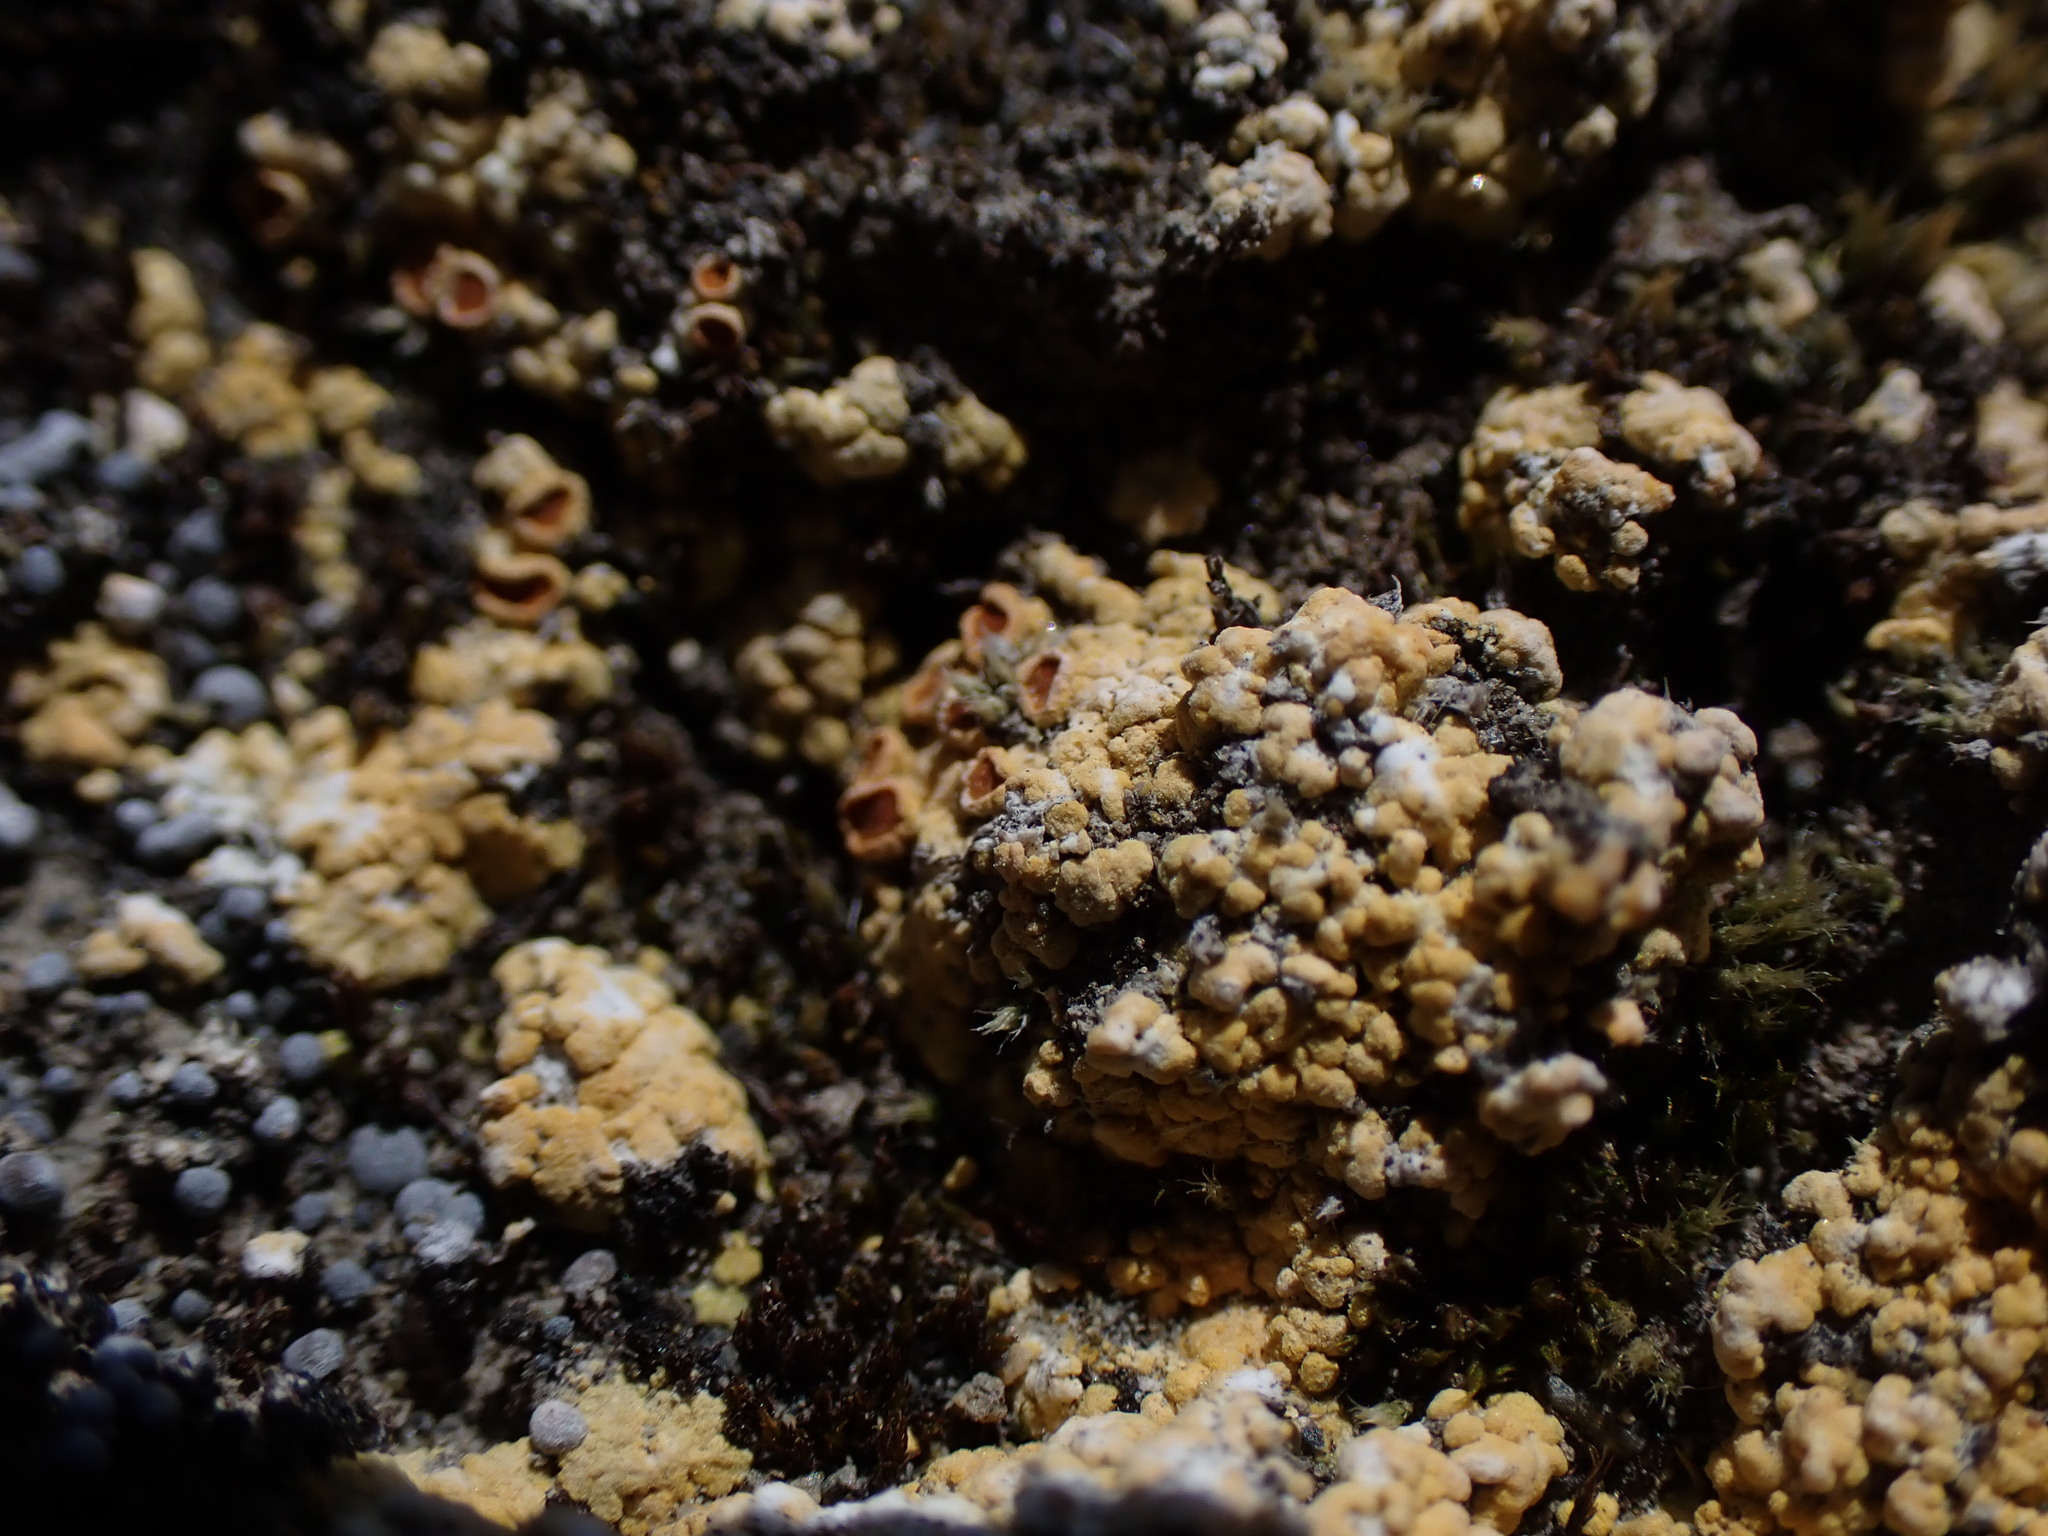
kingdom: Fungi
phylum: Ascomycota
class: Lecanoromycetes
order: Teloschistales
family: Teloschistaceae
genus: Gyalolechia
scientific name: Gyalolechia bracteata
